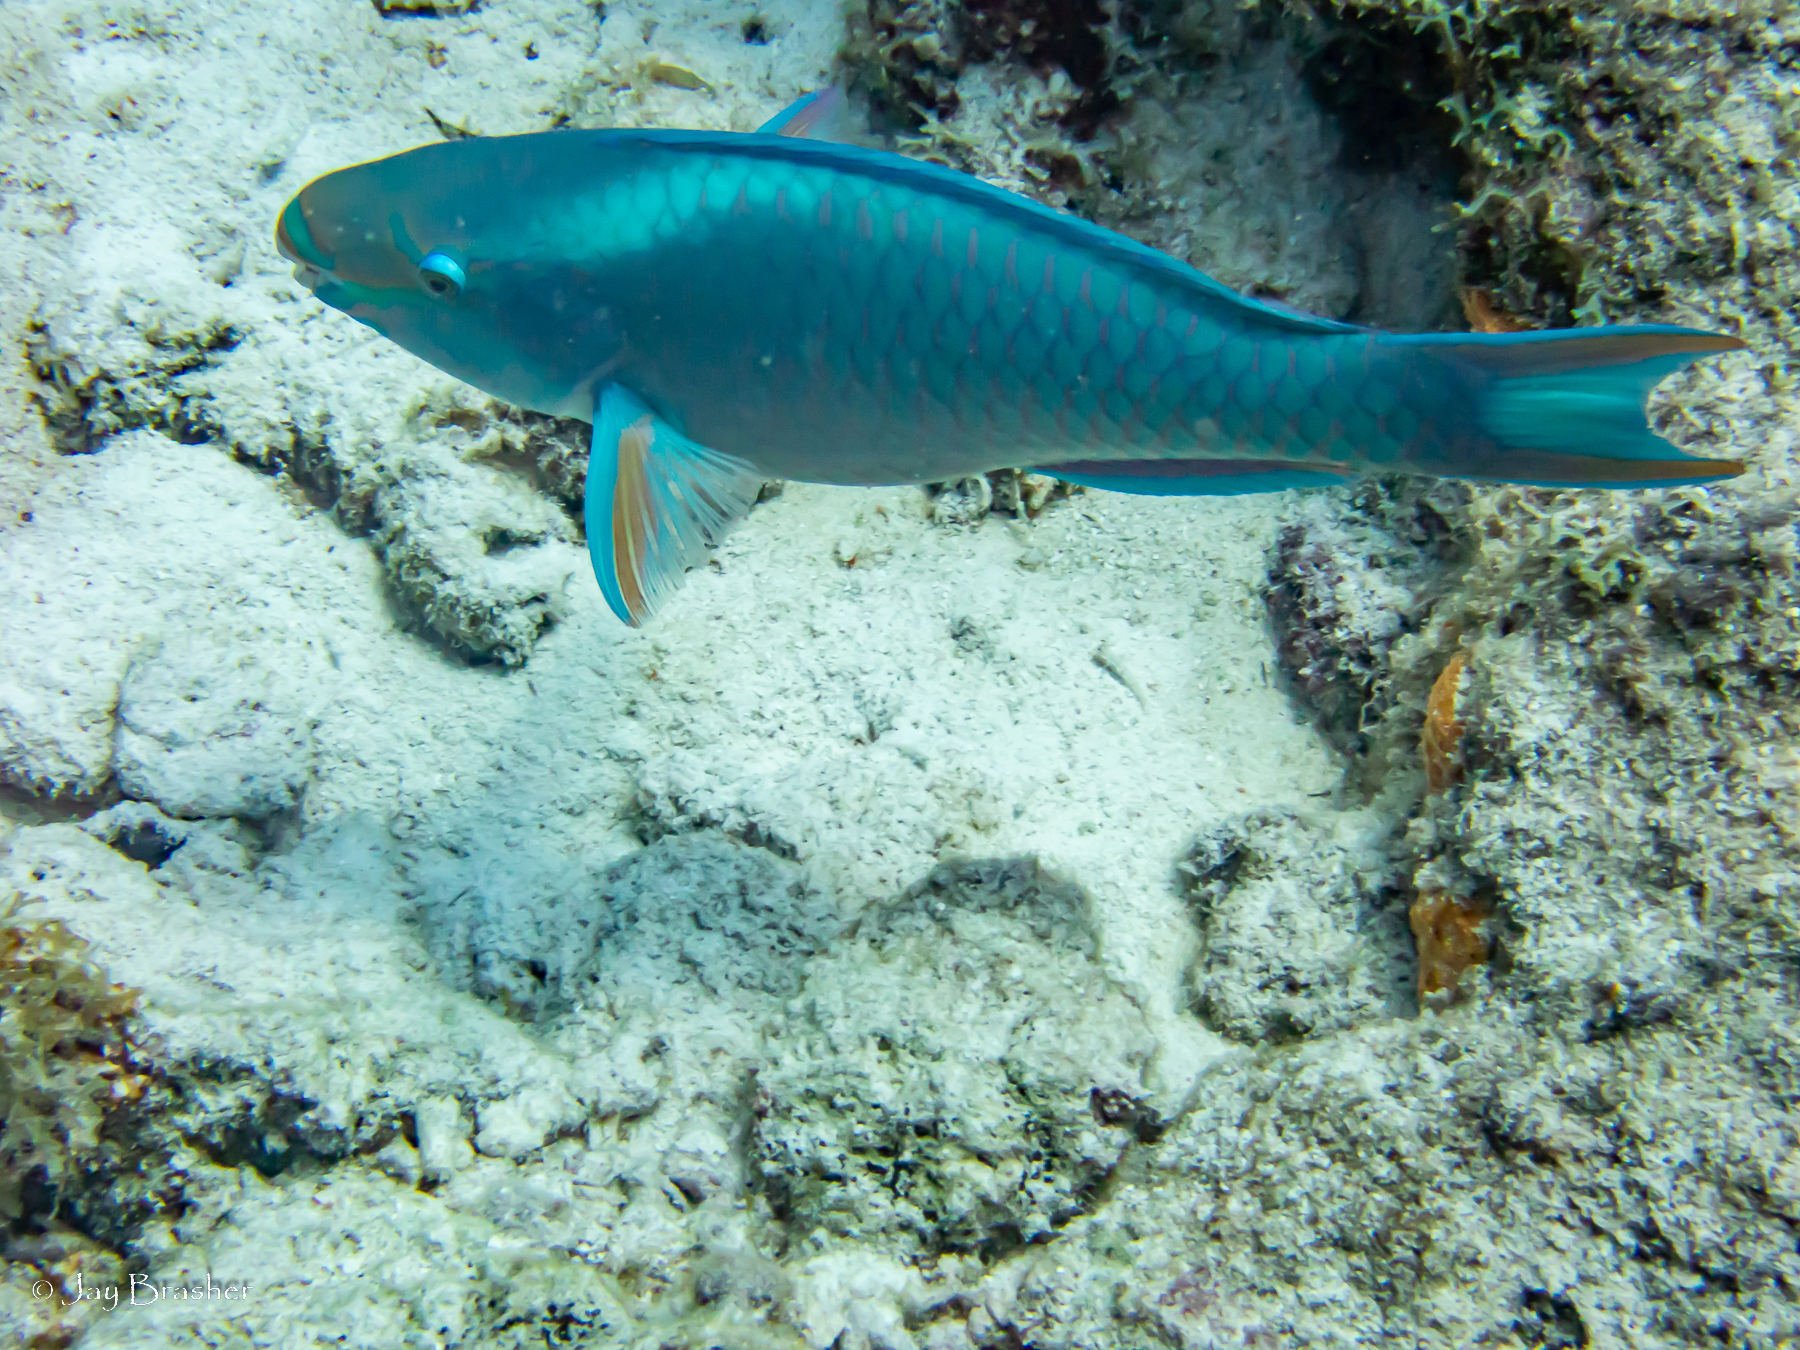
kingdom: Animalia
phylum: Chordata
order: Perciformes
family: Scaridae
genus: Scarus
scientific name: Scarus vetula
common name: Queen parrotfish
